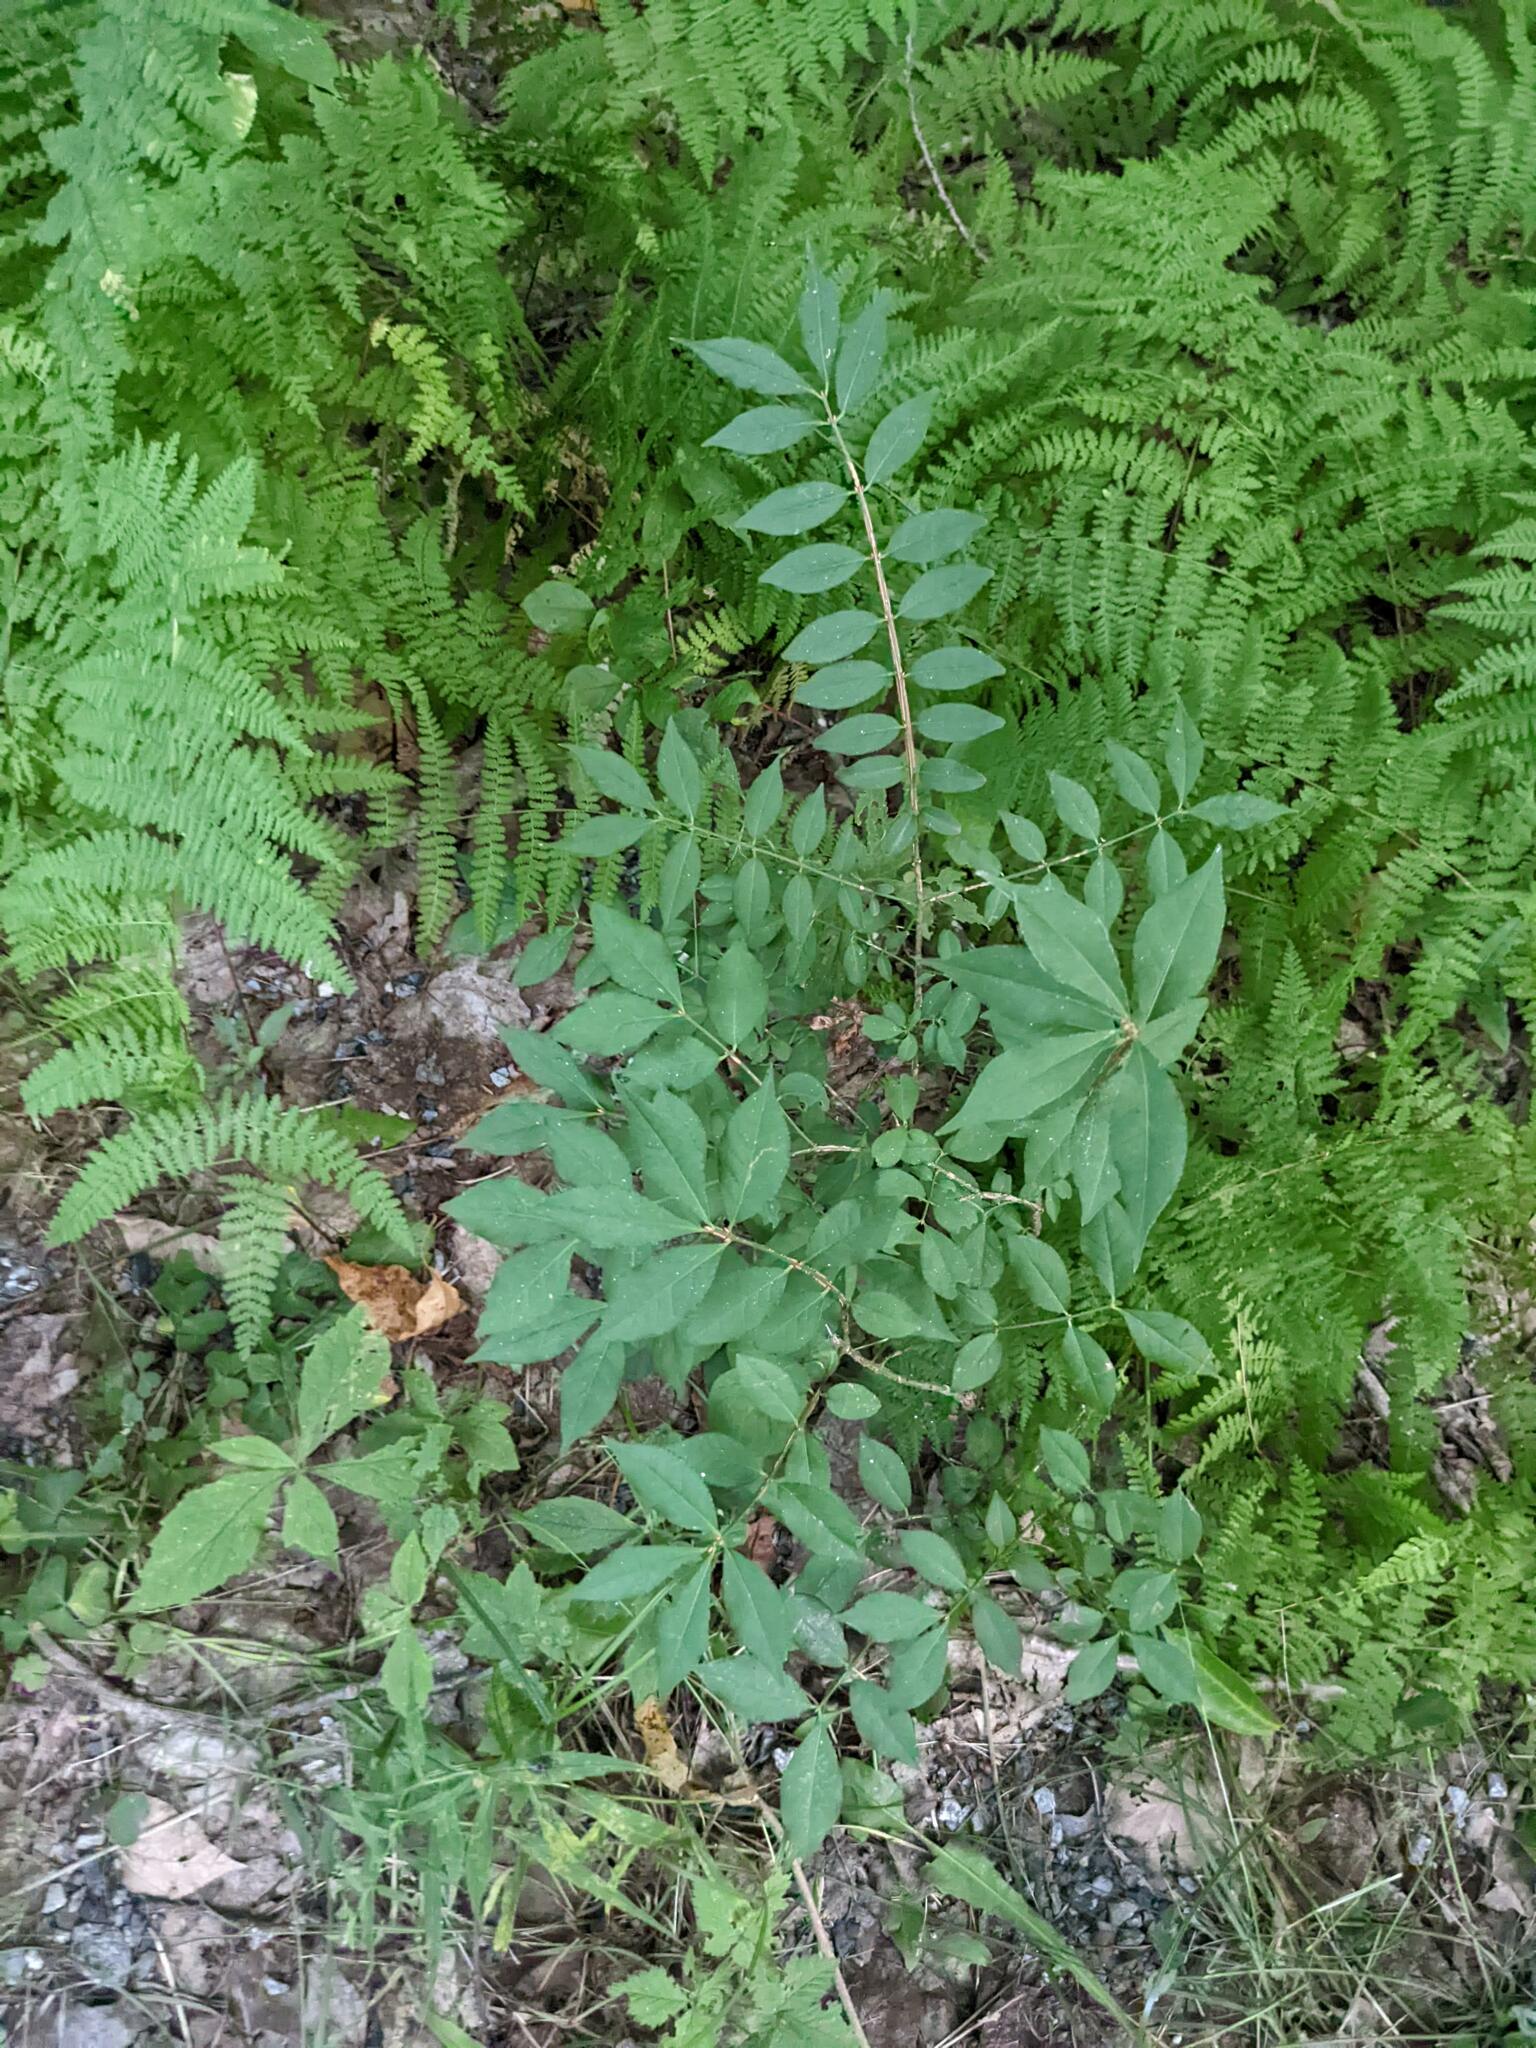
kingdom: Plantae
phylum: Tracheophyta
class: Magnoliopsida
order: Celastrales
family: Celastraceae
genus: Euonymus
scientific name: Euonymus alatus
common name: Winged euonymus
